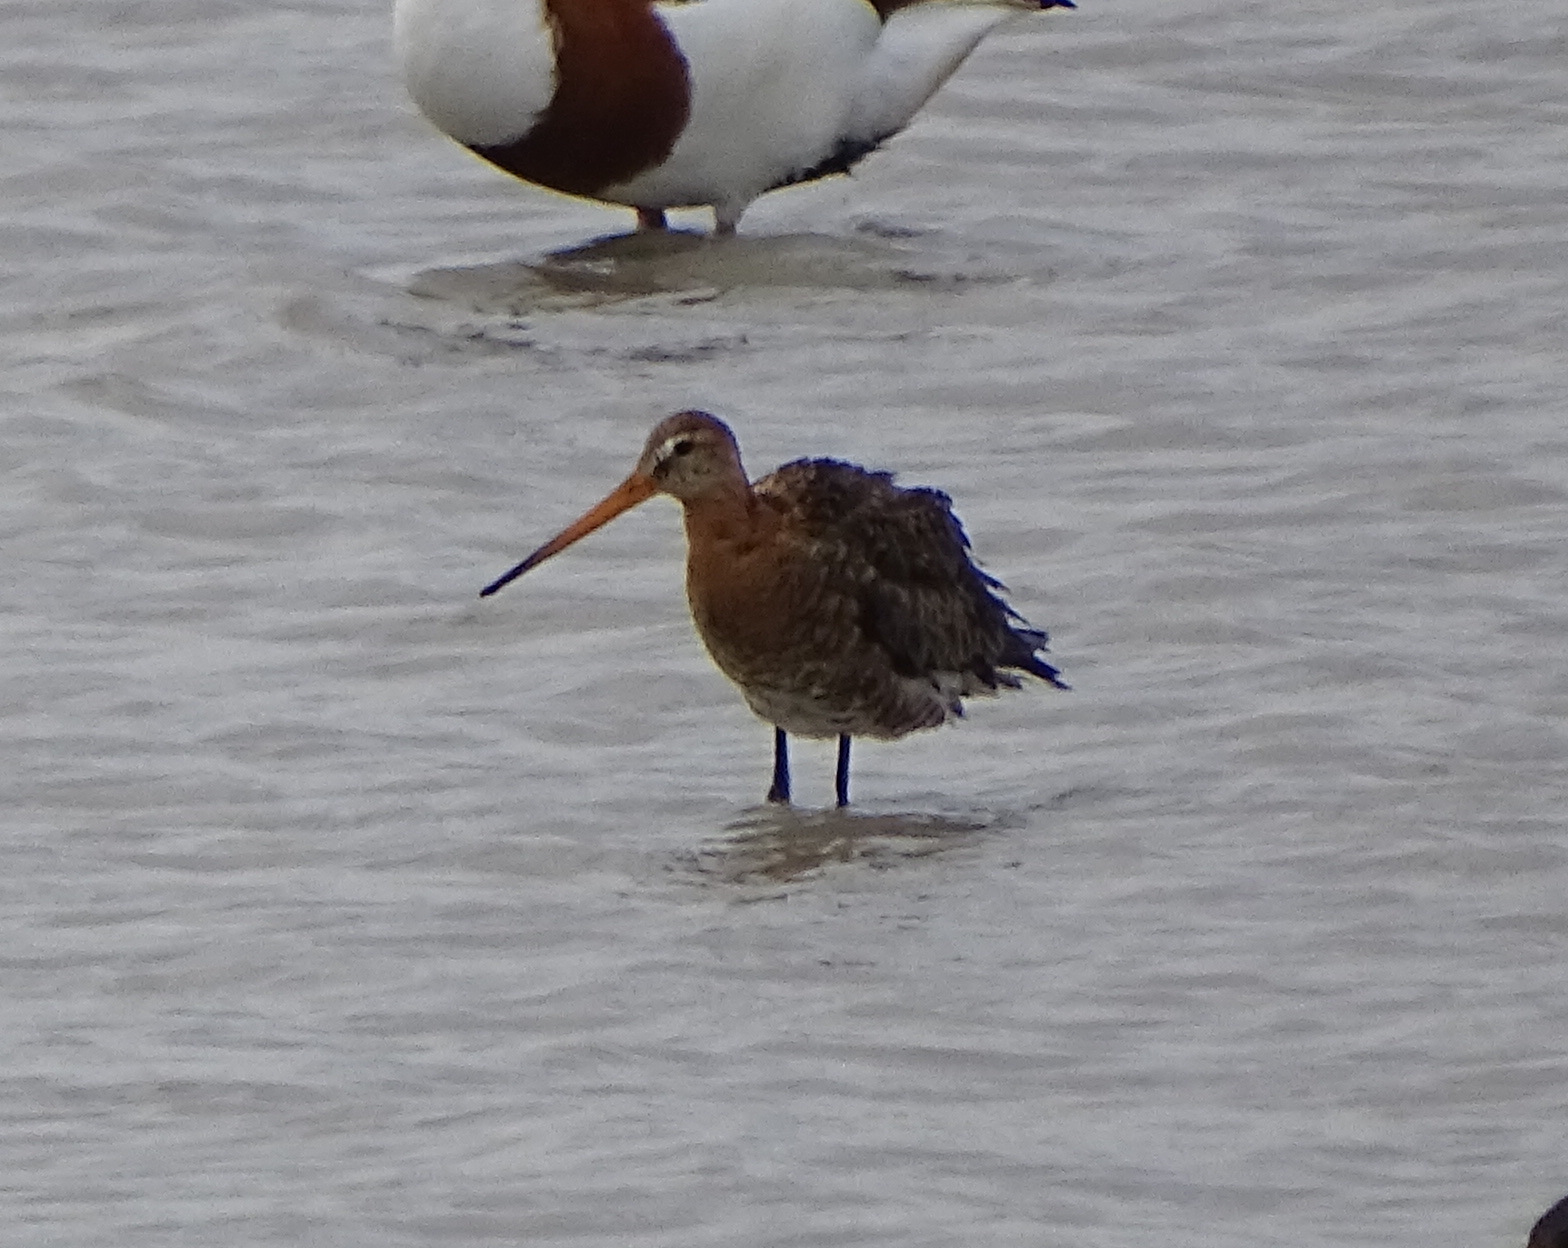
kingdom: Animalia
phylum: Chordata
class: Aves
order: Charadriiformes
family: Scolopacidae
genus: Limosa
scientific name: Limosa limosa
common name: Black-tailed godwit
